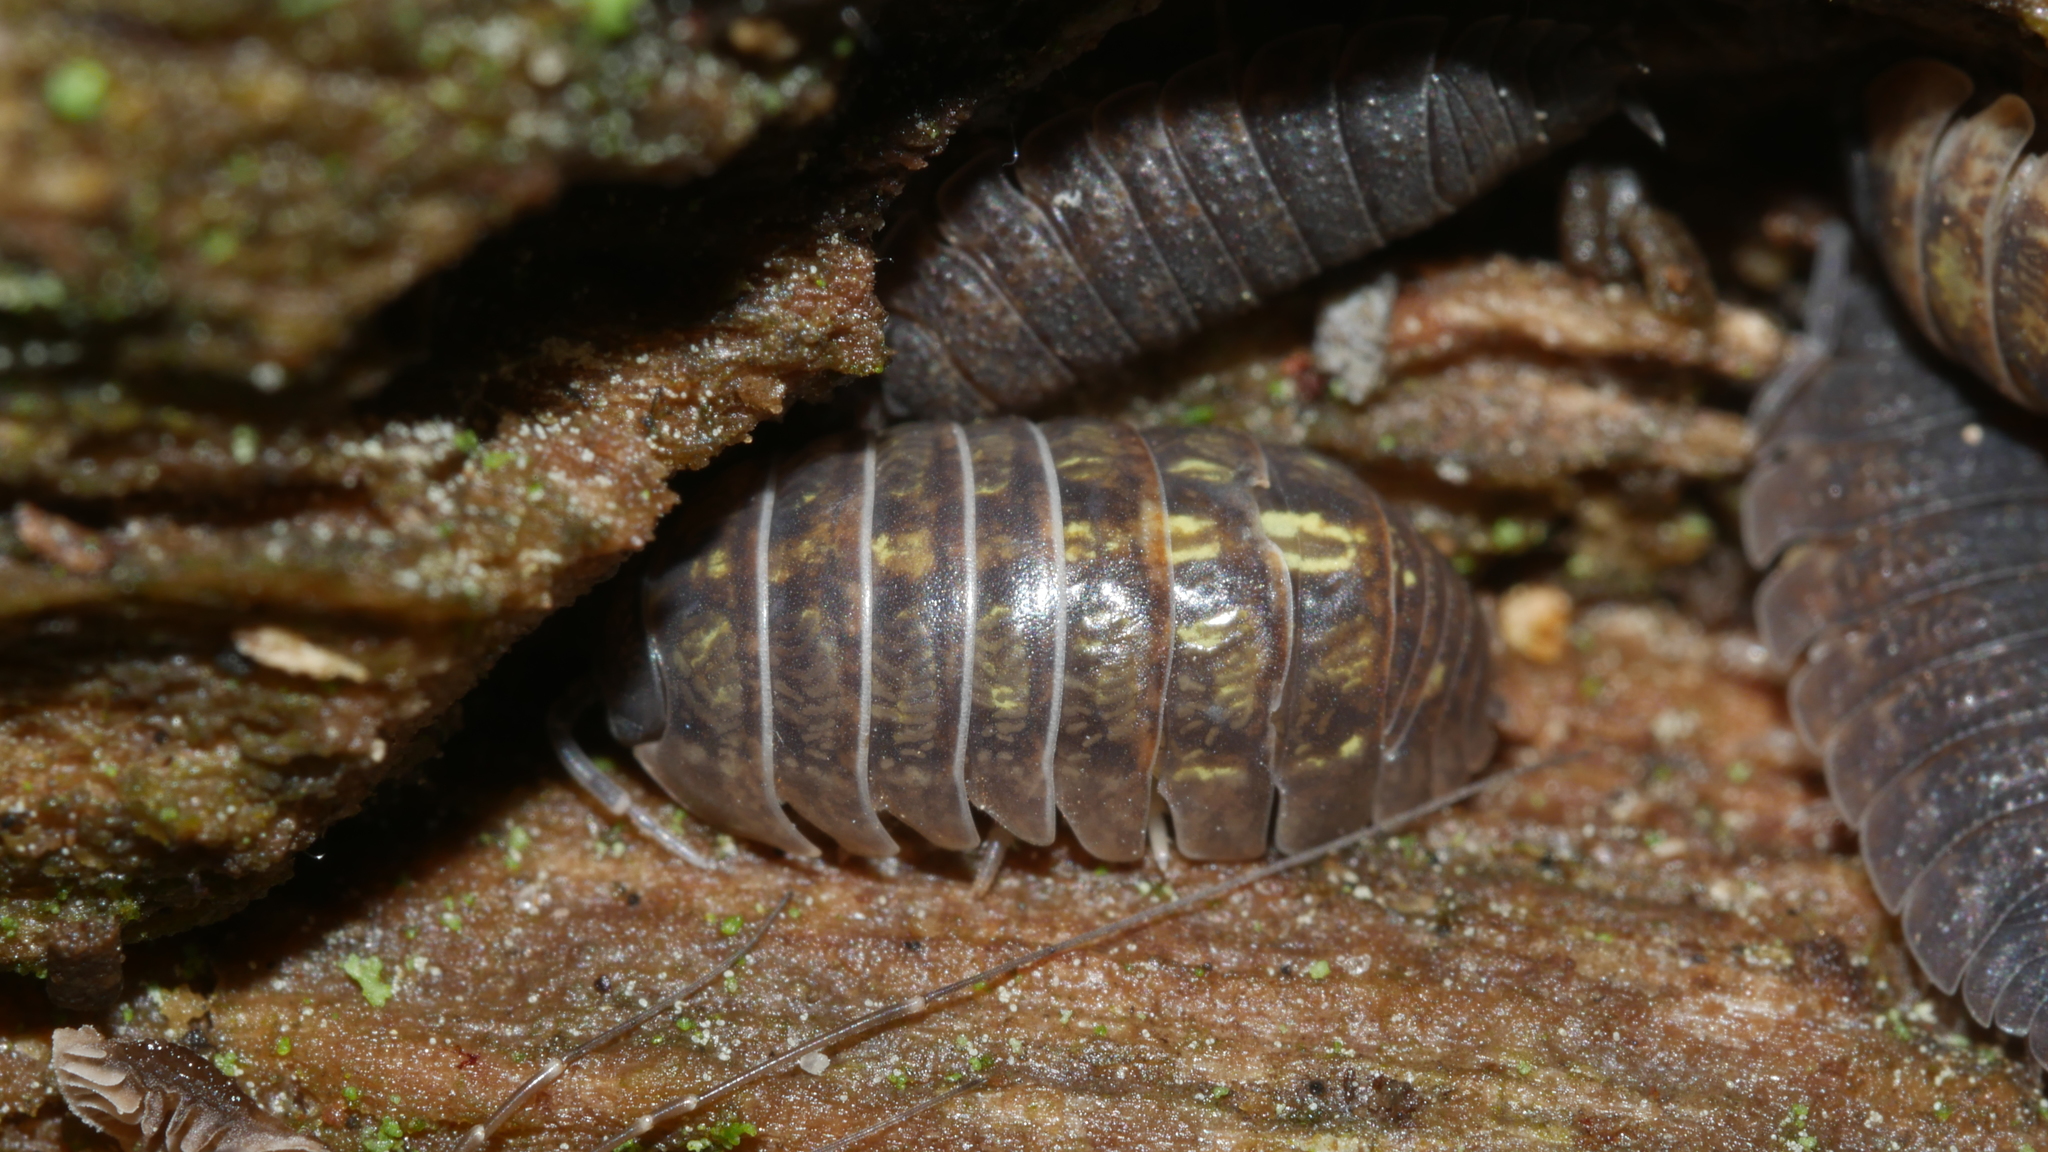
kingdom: Animalia
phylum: Arthropoda
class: Malacostraca
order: Isopoda
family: Armadillidiidae
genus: Armadillidium
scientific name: Armadillidium vulgare
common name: Common pill woodlouse
